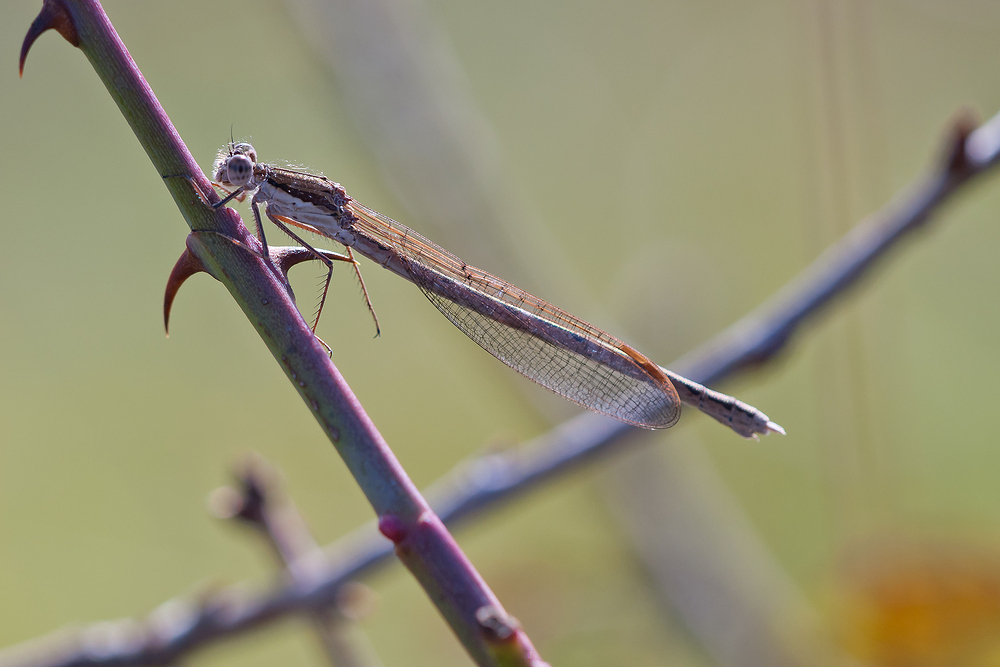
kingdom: Animalia
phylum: Arthropoda
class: Insecta
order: Odonata
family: Lestidae
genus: Sympecma
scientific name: Sympecma fusca
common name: Common winter damsel
